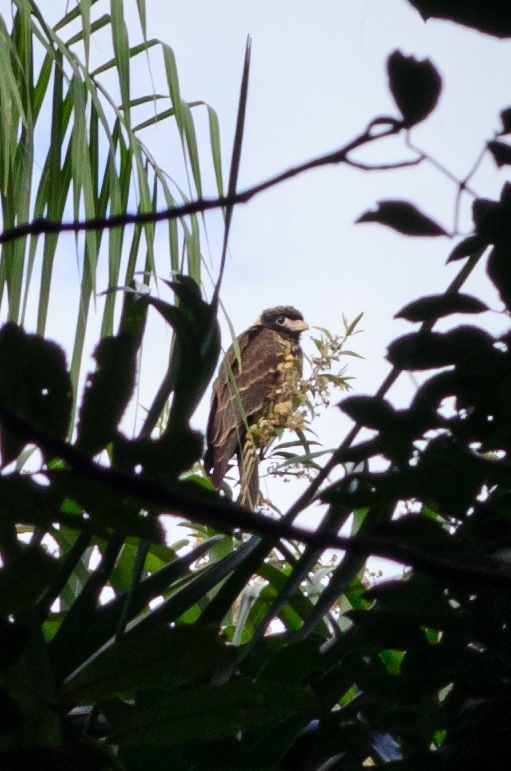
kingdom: Animalia
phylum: Chordata
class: Aves
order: Falconiformes
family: Falconidae
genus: Daptrius
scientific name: Daptrius
